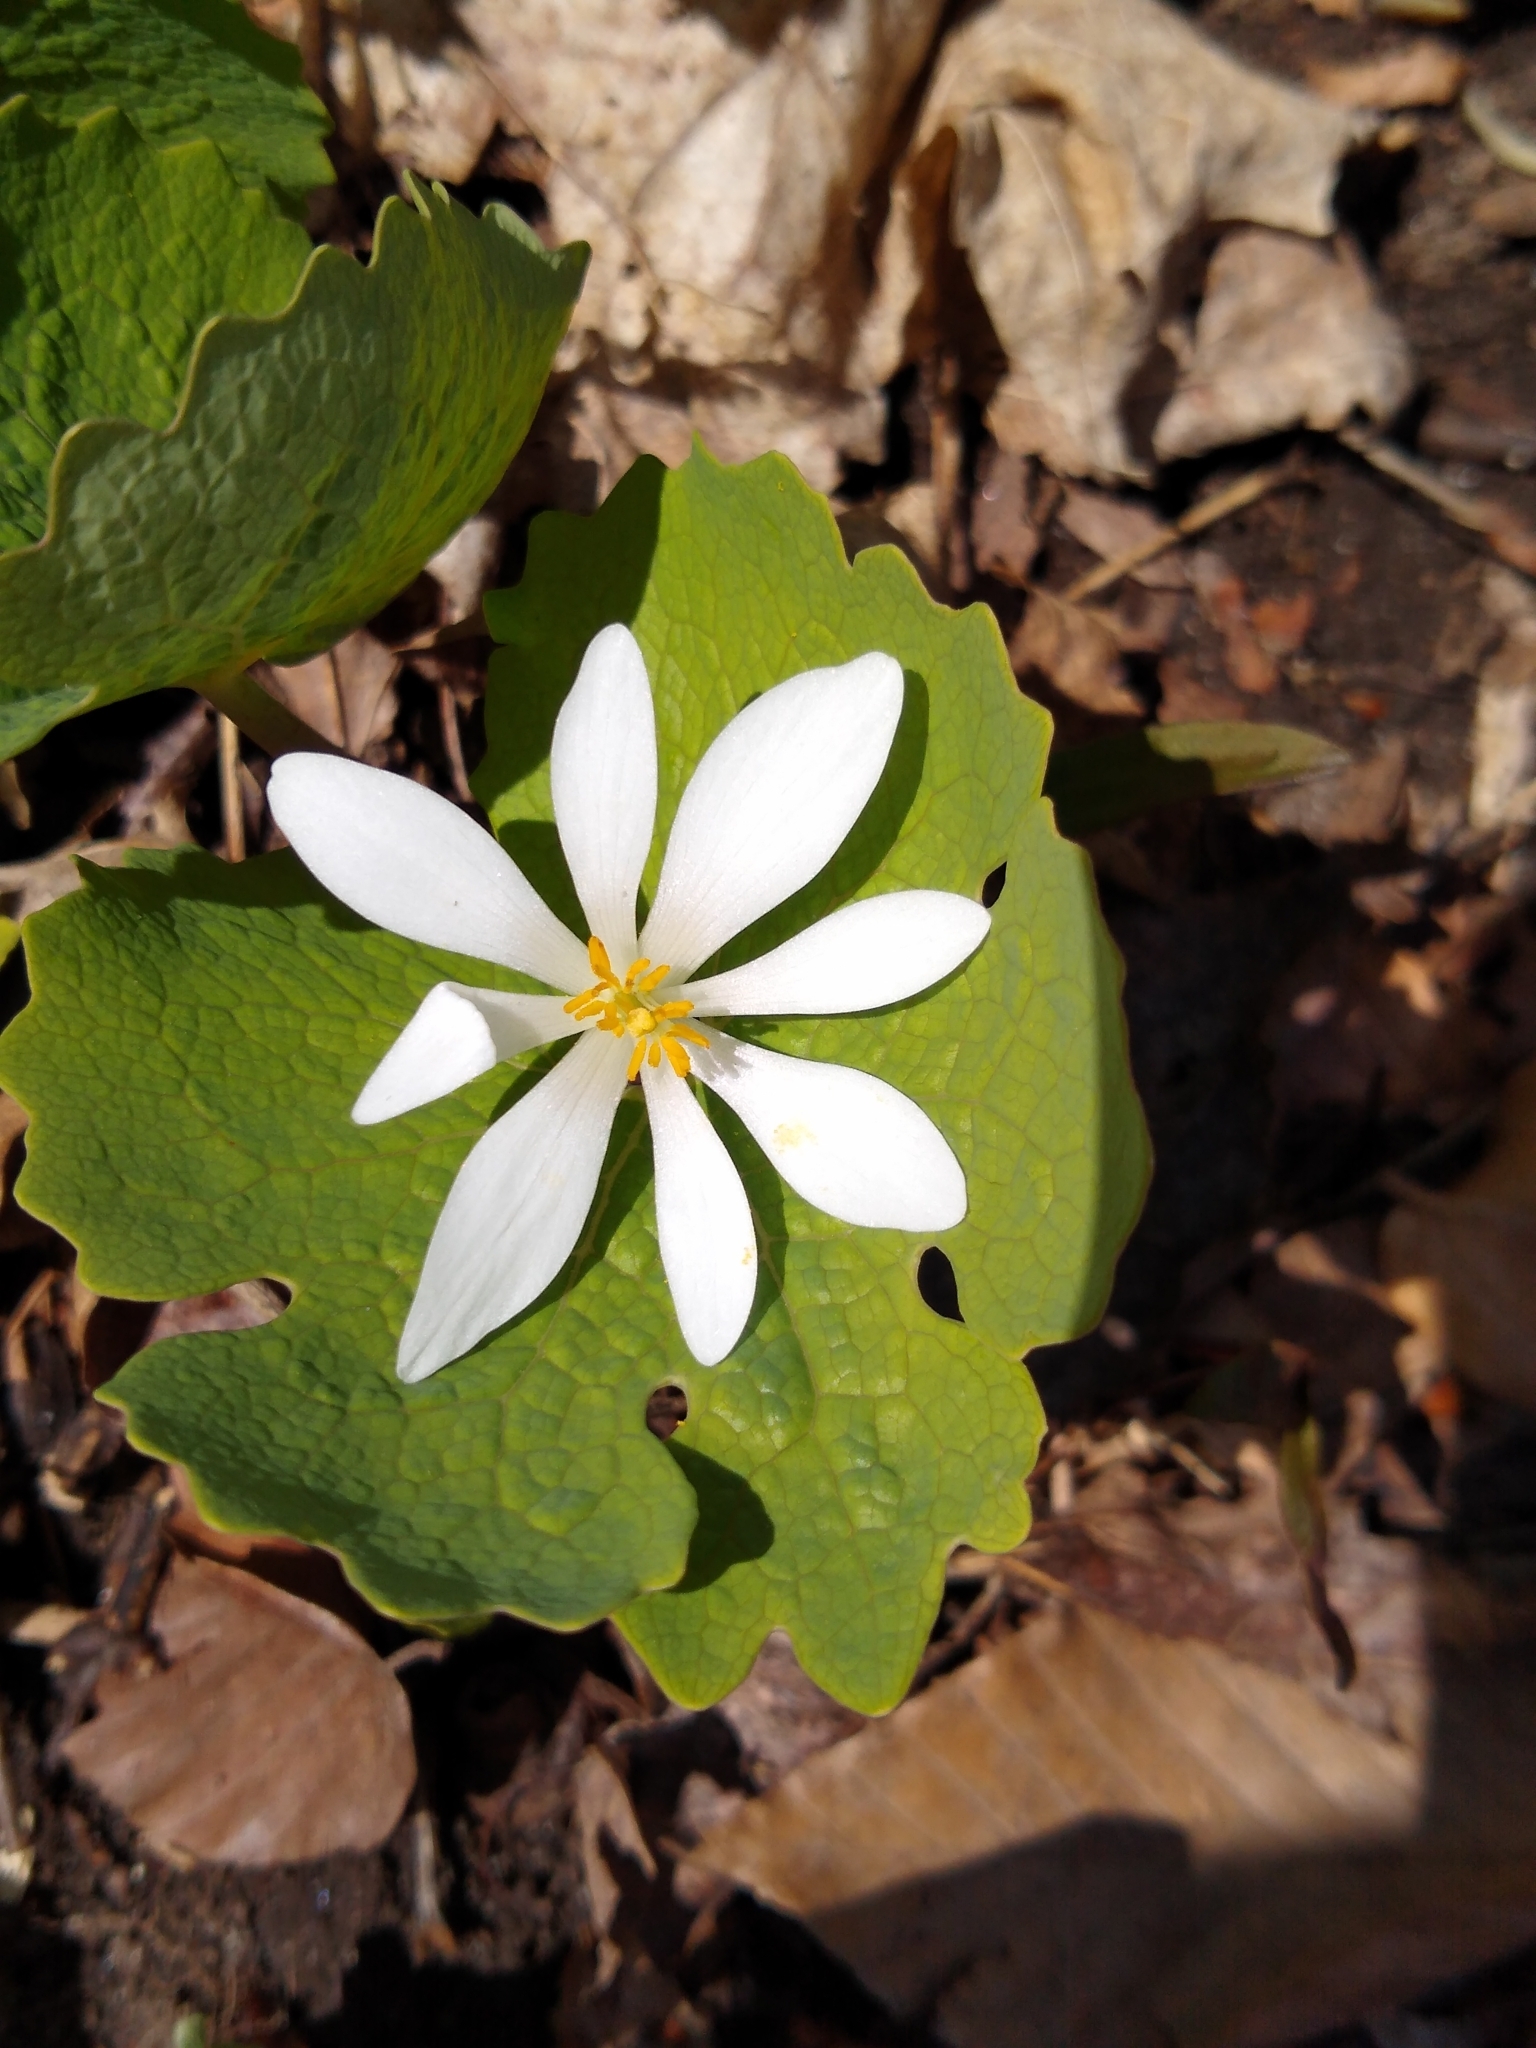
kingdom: Plantae
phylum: Tracheophyta
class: Magnoliopsida
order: Ranunculales
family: Papaveraceae
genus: Sanguinaria
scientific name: Sanguinaria canadensis
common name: Bloodroot
